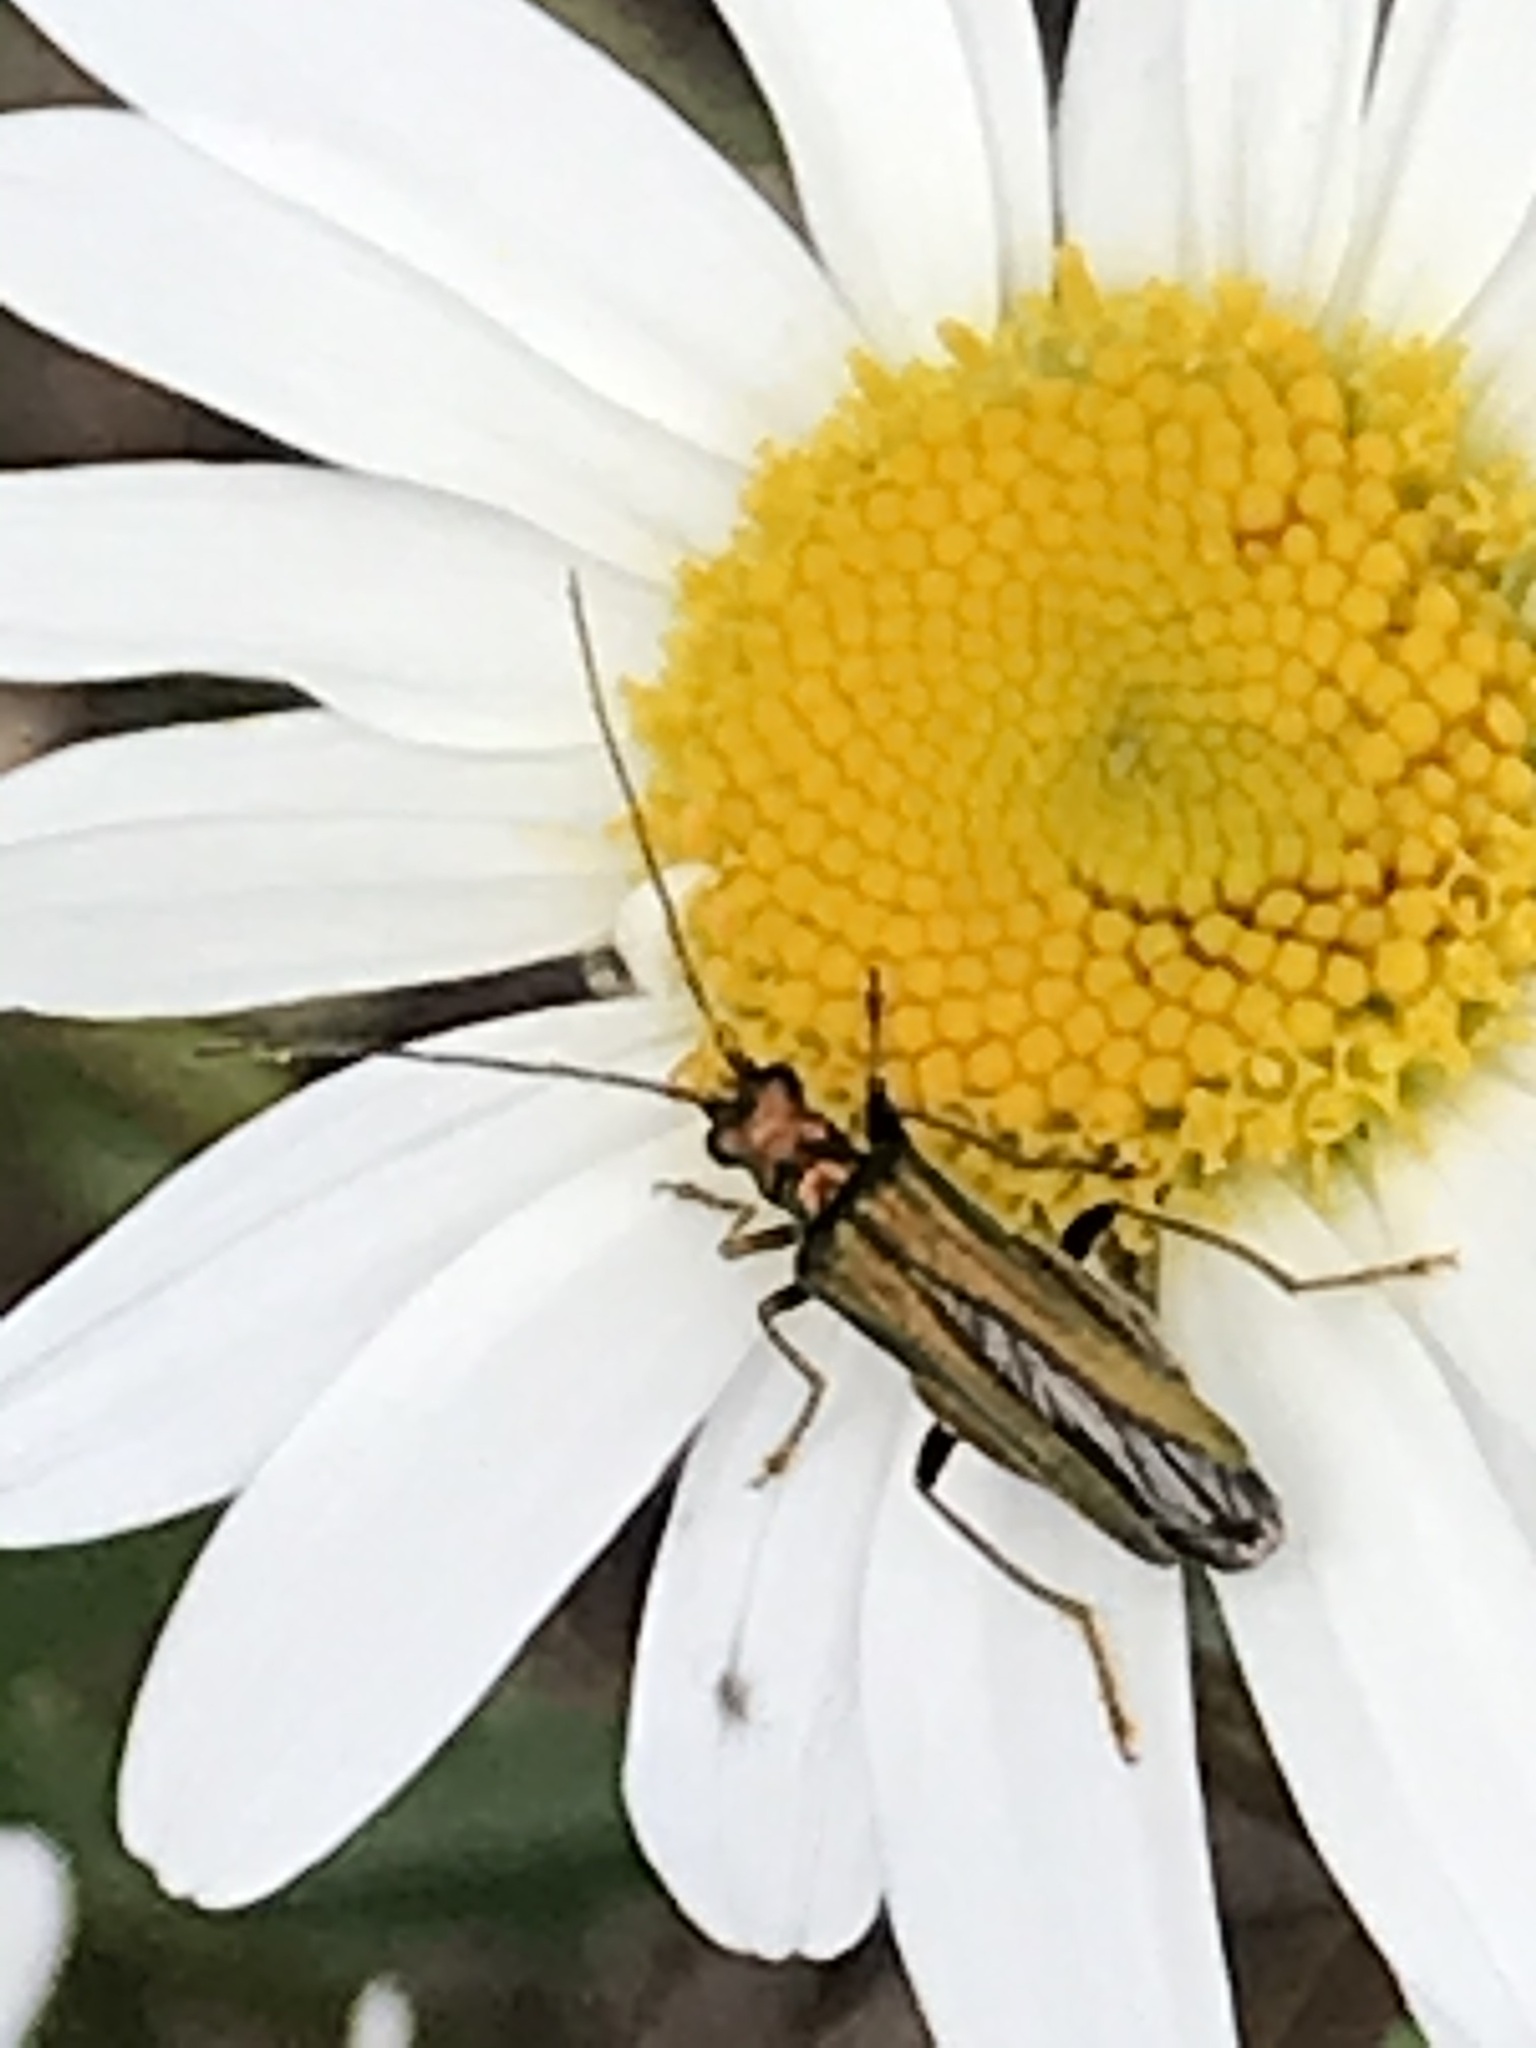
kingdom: Animalia
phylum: Arthropoda
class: Insecta
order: Coleoptera
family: Oedemeridae
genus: Oedemera
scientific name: Oedemera nobilis
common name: Swollen-thighed beetle
